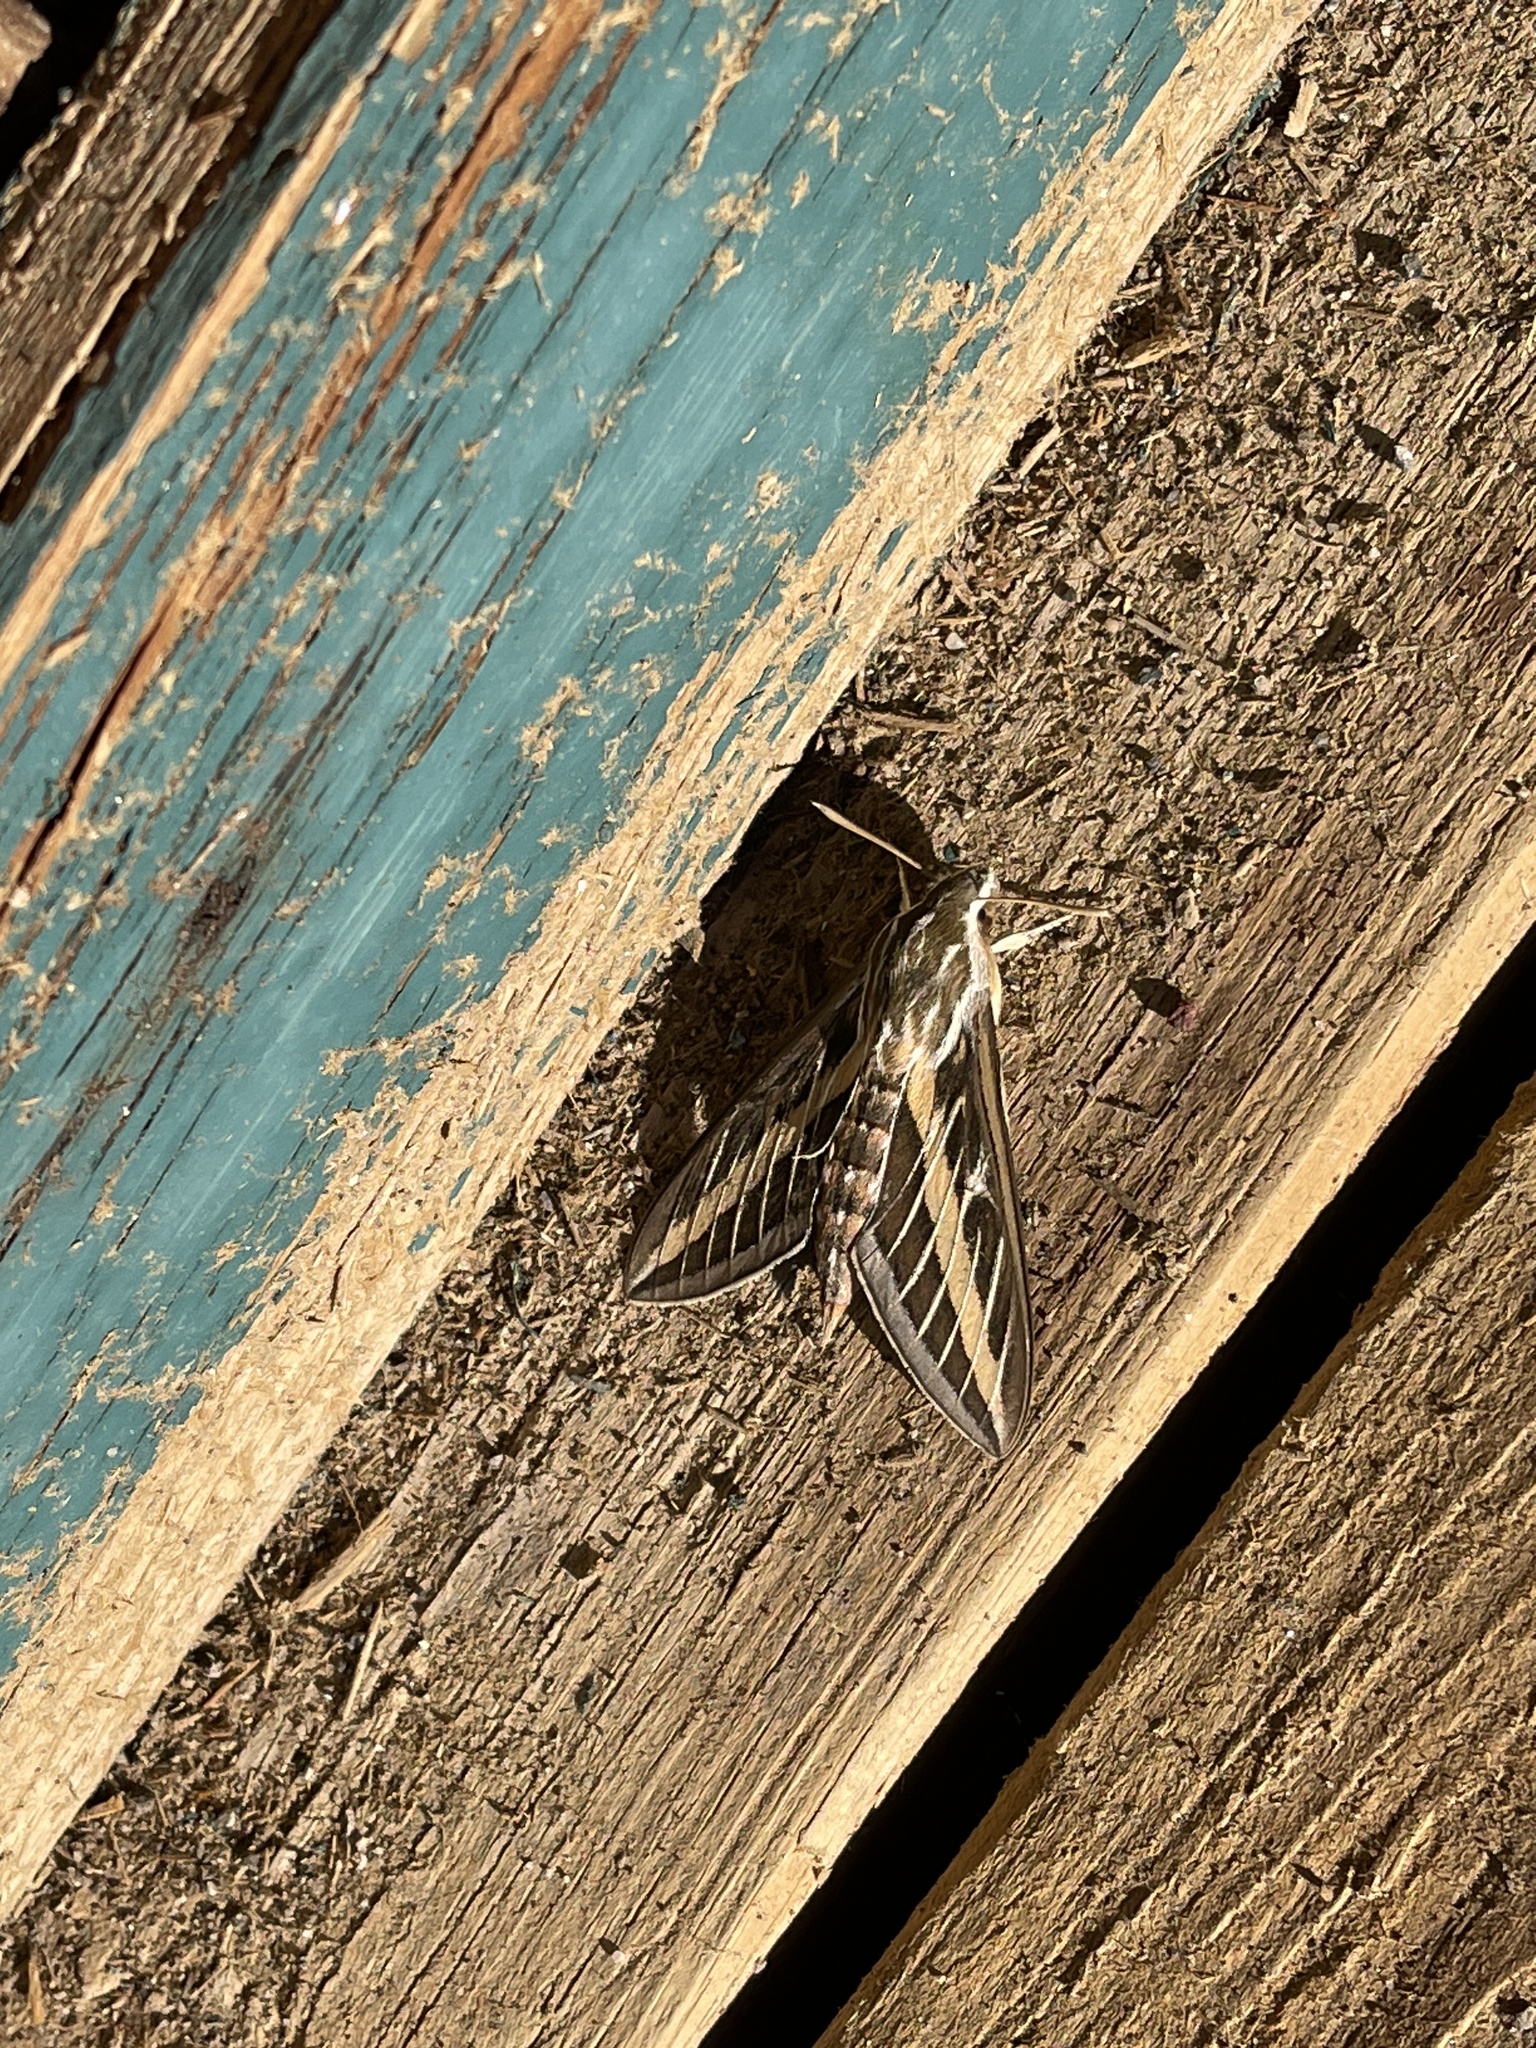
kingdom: Animalia
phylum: Arthropoda
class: Insecta
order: Lepidoptera
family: Sphingidae
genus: Hyles
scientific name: Hyles lineata
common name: White-lined sphinx
